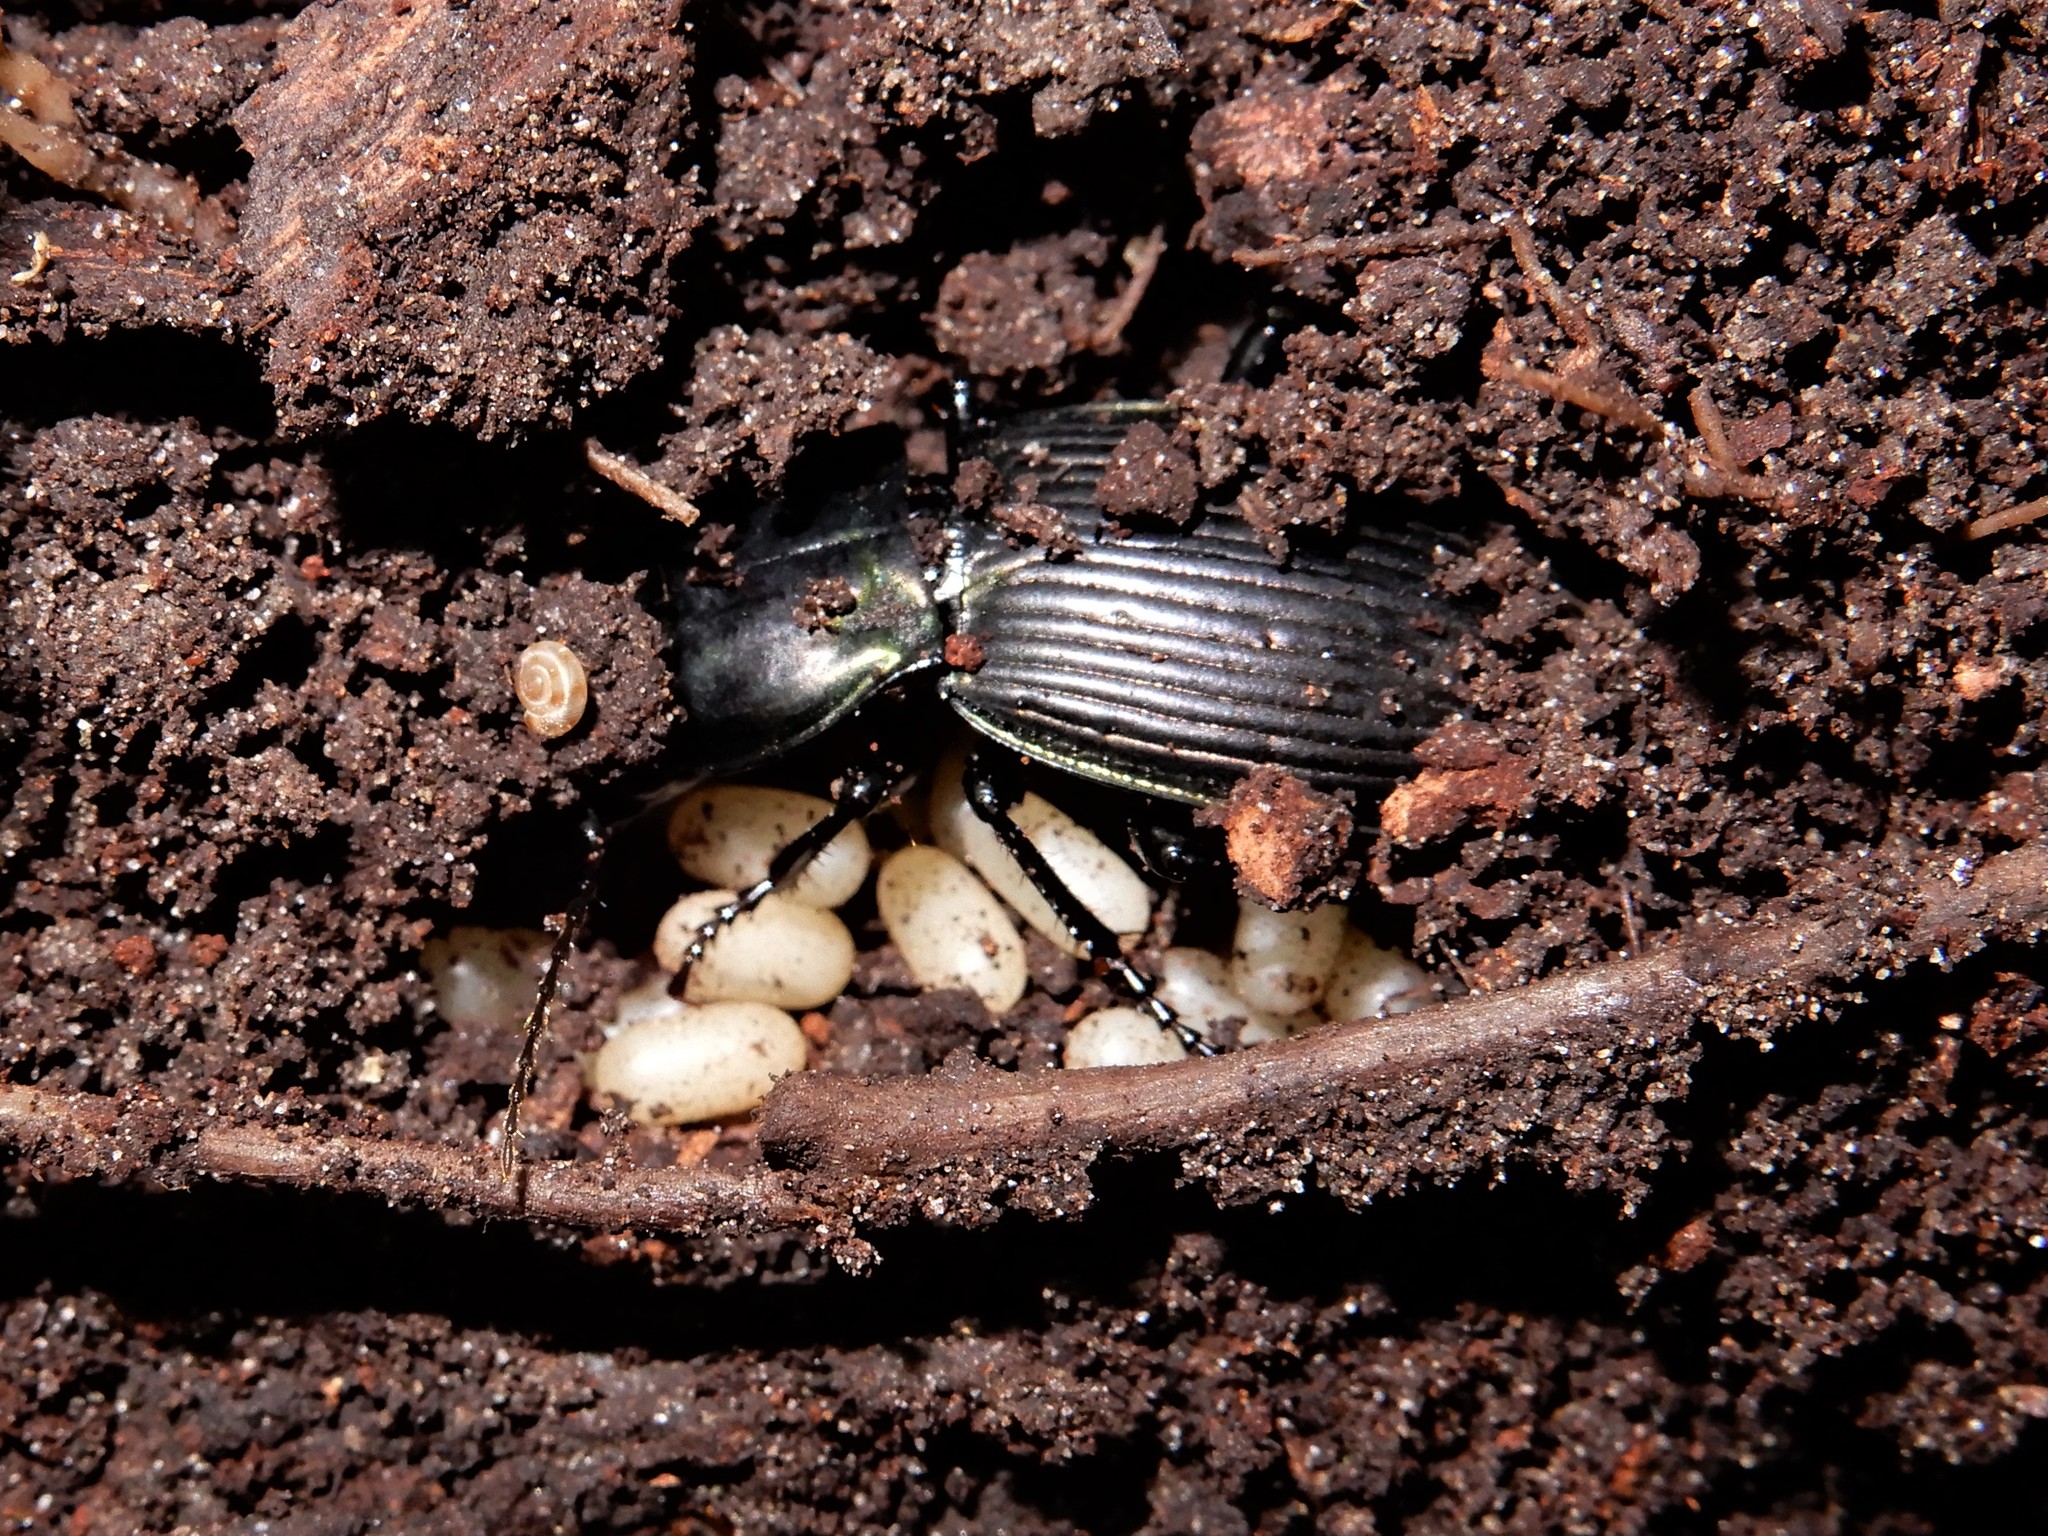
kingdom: Animalia
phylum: Arthropoda
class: Insecta
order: Coleoptera
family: Carabidae
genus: Megadromus
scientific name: Megadromus capito
